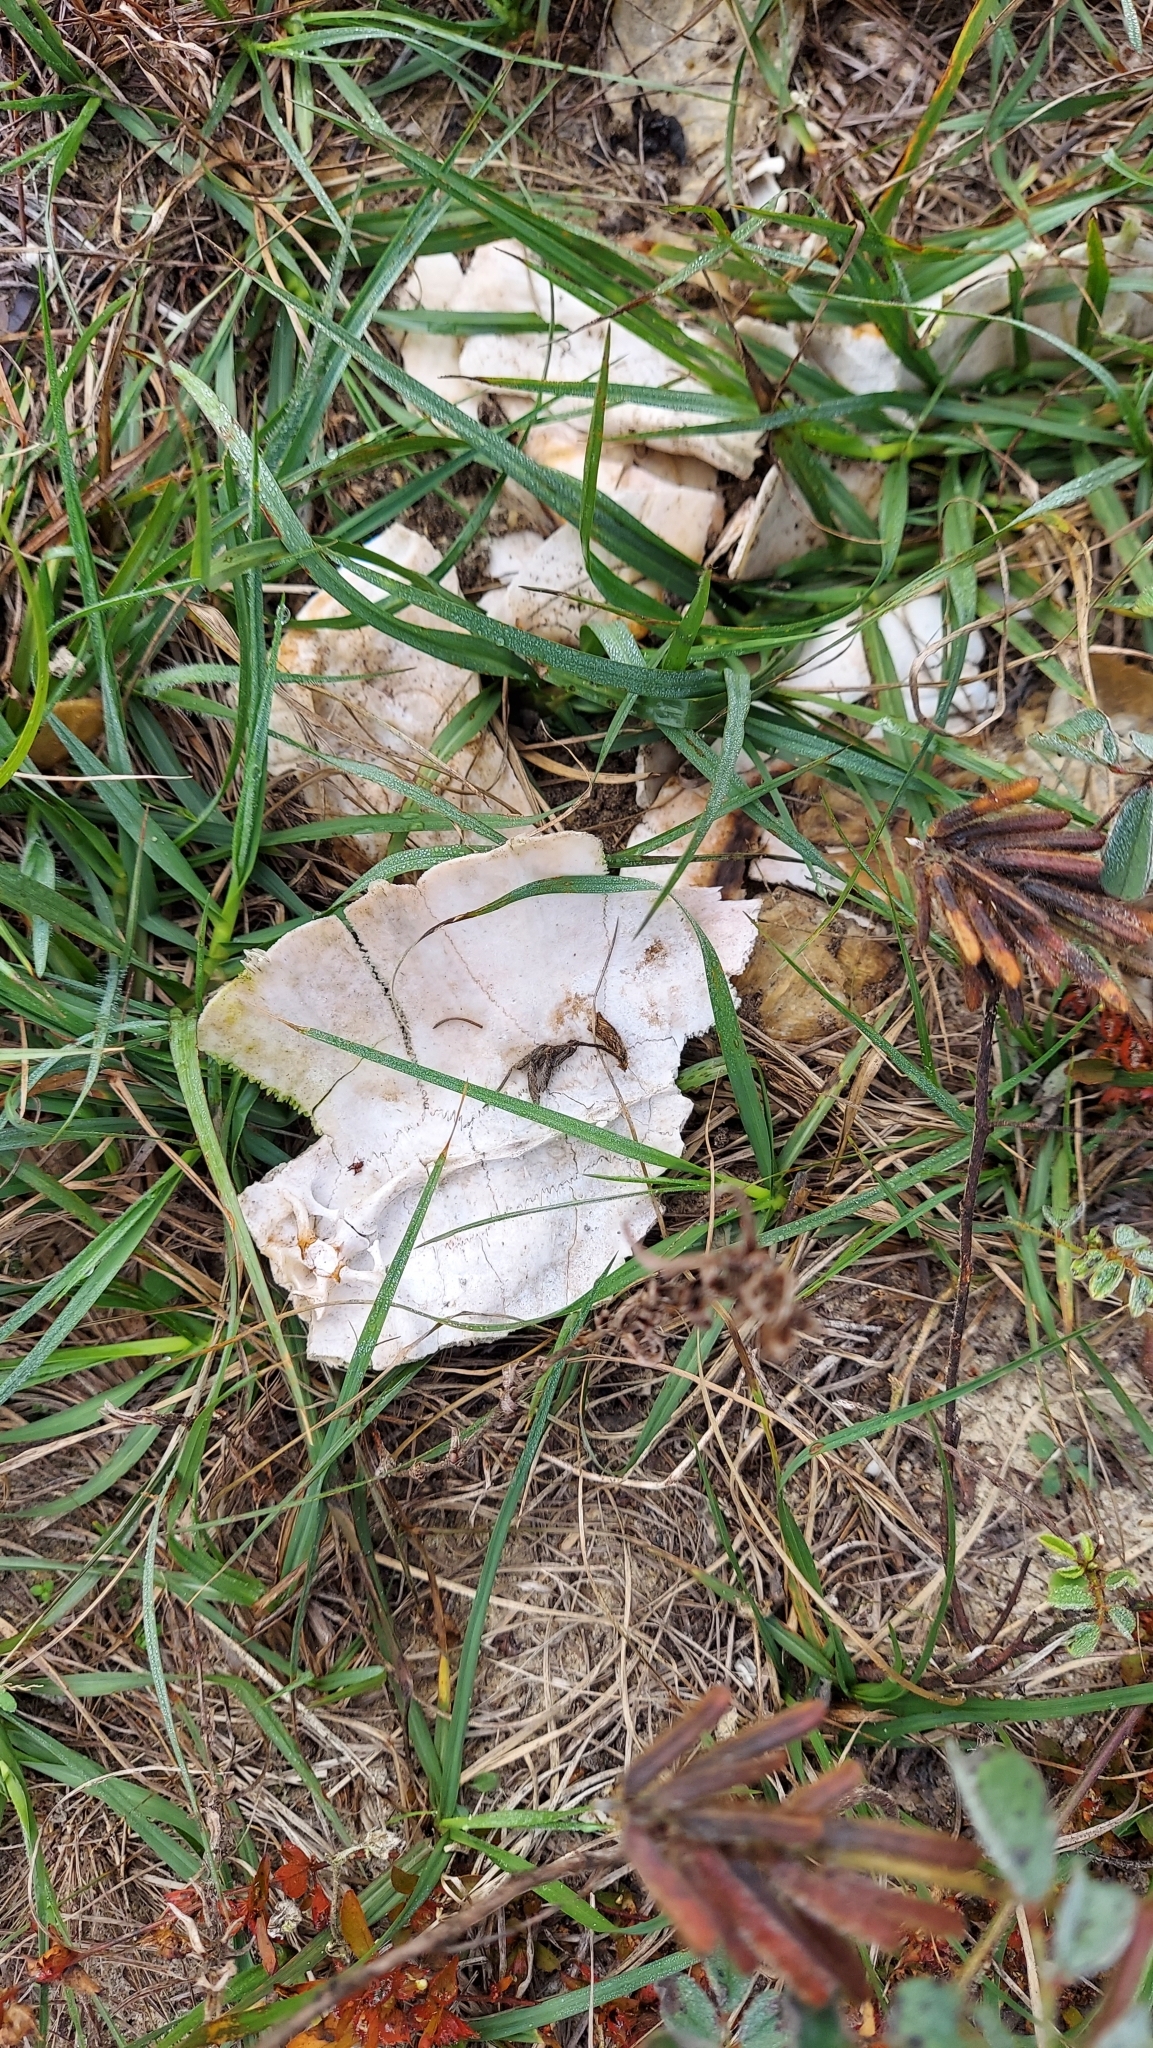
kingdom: Animalia
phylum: Chordata
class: Testudines
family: Testudinidae
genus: Gopherus
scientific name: Gopherus polyphemus
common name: Florida gopher tortoise
